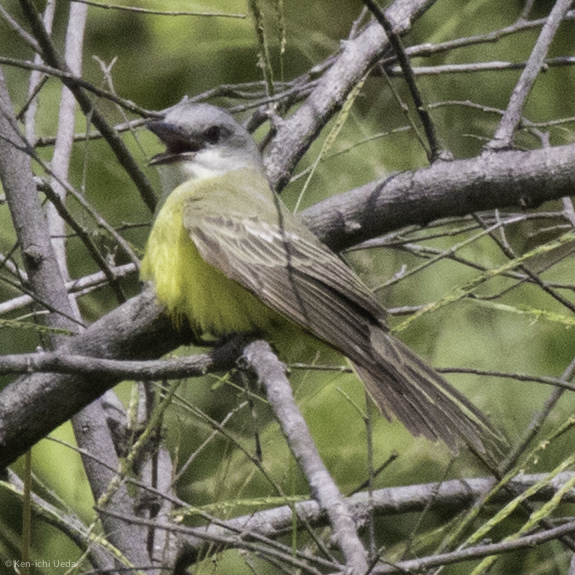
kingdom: Animalia
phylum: Chordata
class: Aves
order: Passeriformes
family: Tyrannidae
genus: Tyrannus
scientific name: Tyrannus melancholicus
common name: Tropical kingbird
